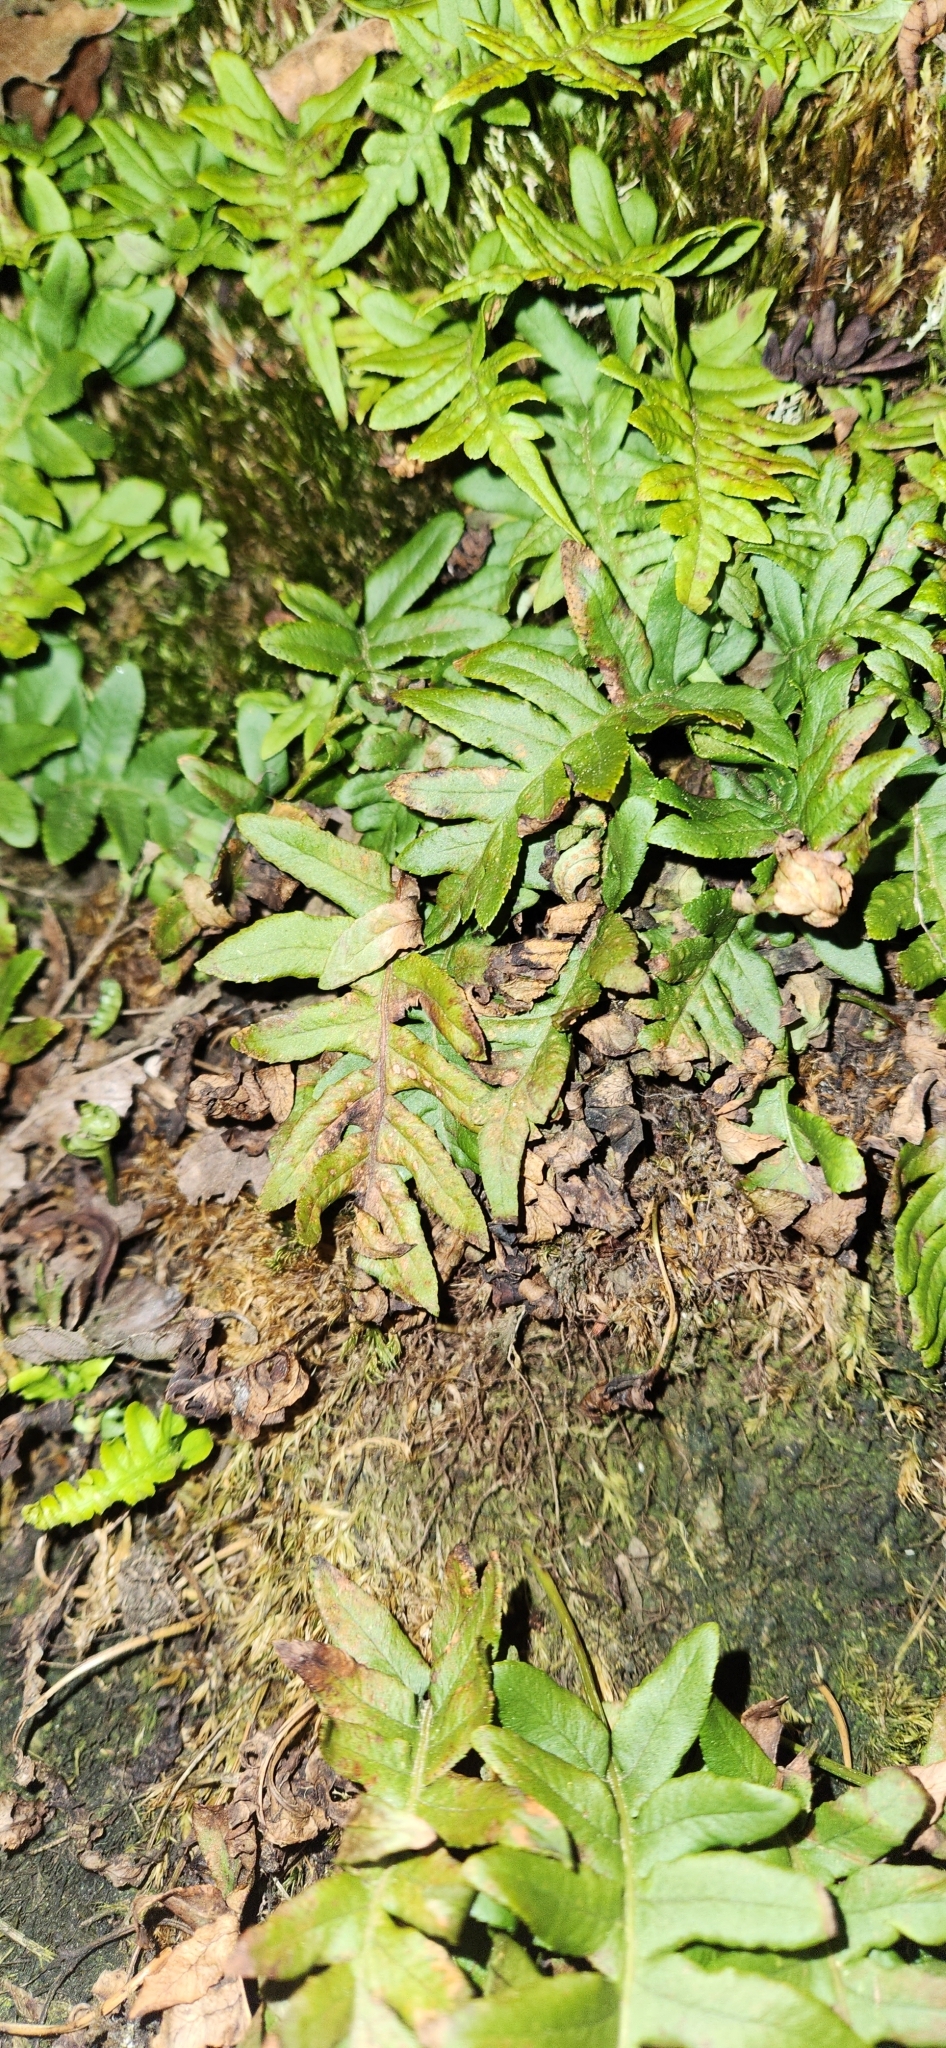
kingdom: Plantae
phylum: Tracheophyta
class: Polypodiopsida
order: Polypodiales
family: Polypodiaceae
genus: Polypodium
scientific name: Polypodium glycyrrhiza
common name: Licorice fern
